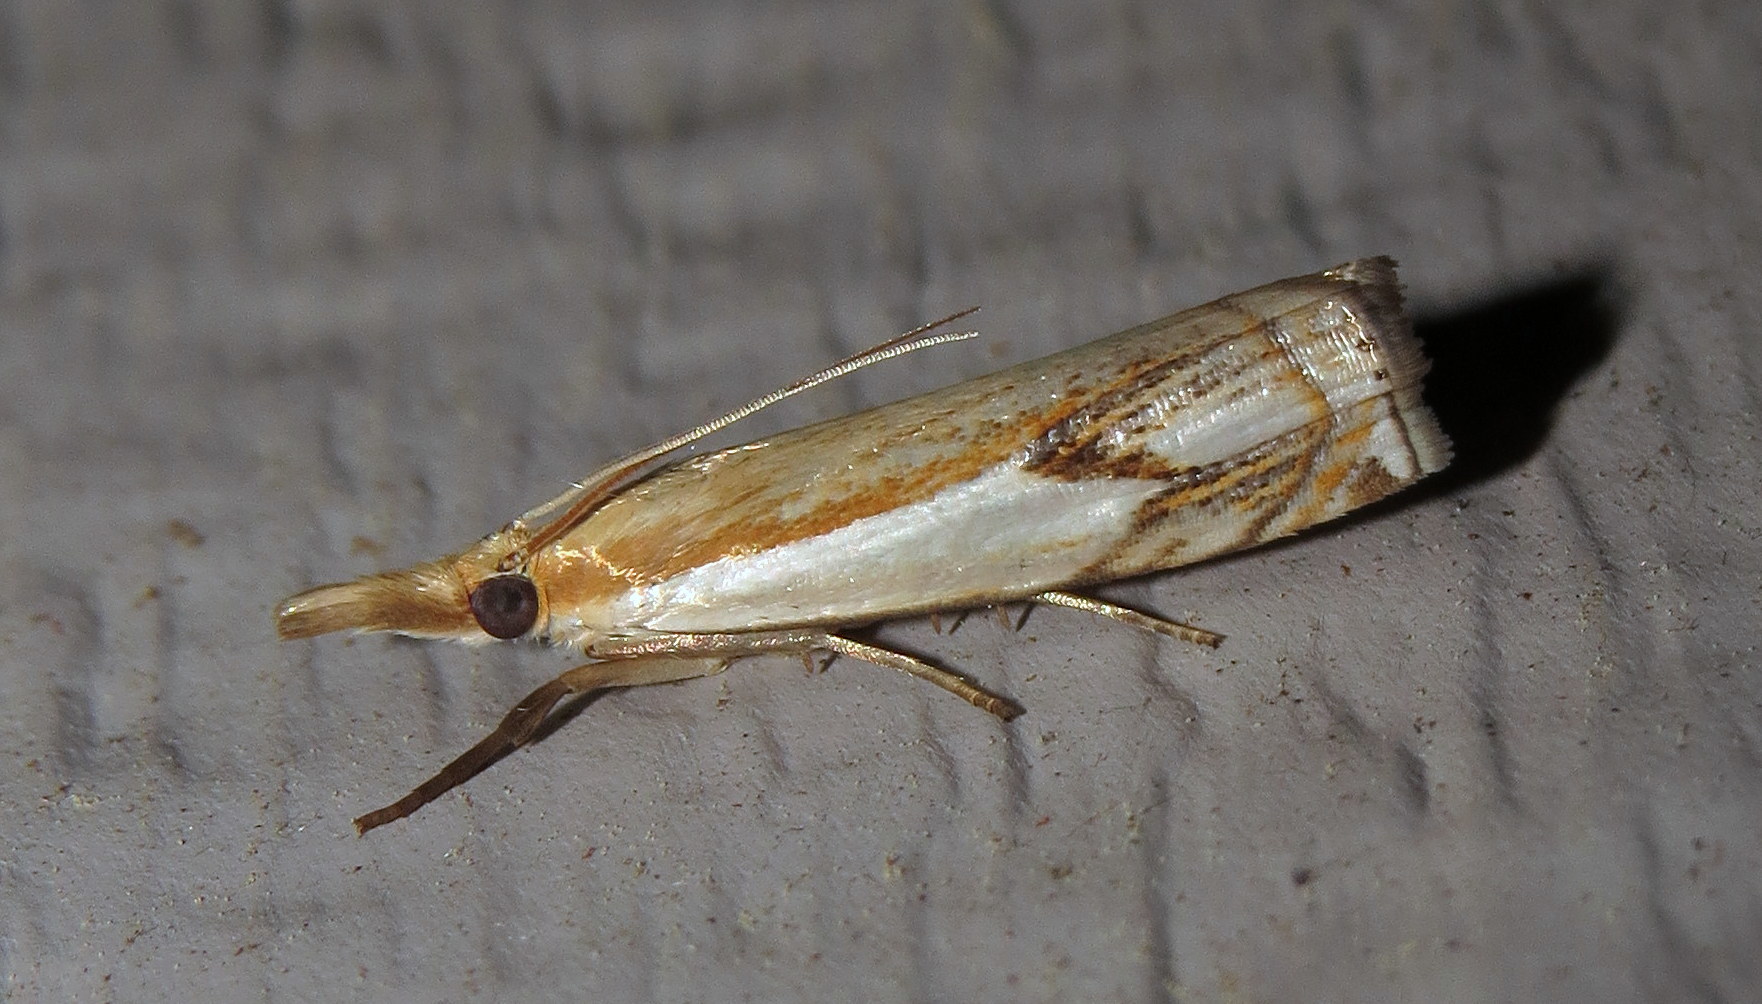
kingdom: Animalia
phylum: Arthropoda
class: Insecta
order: Lepidoptera
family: Crambidae
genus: Crambus
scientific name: Crambus agitatellus
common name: Double-banded grass-veneer
